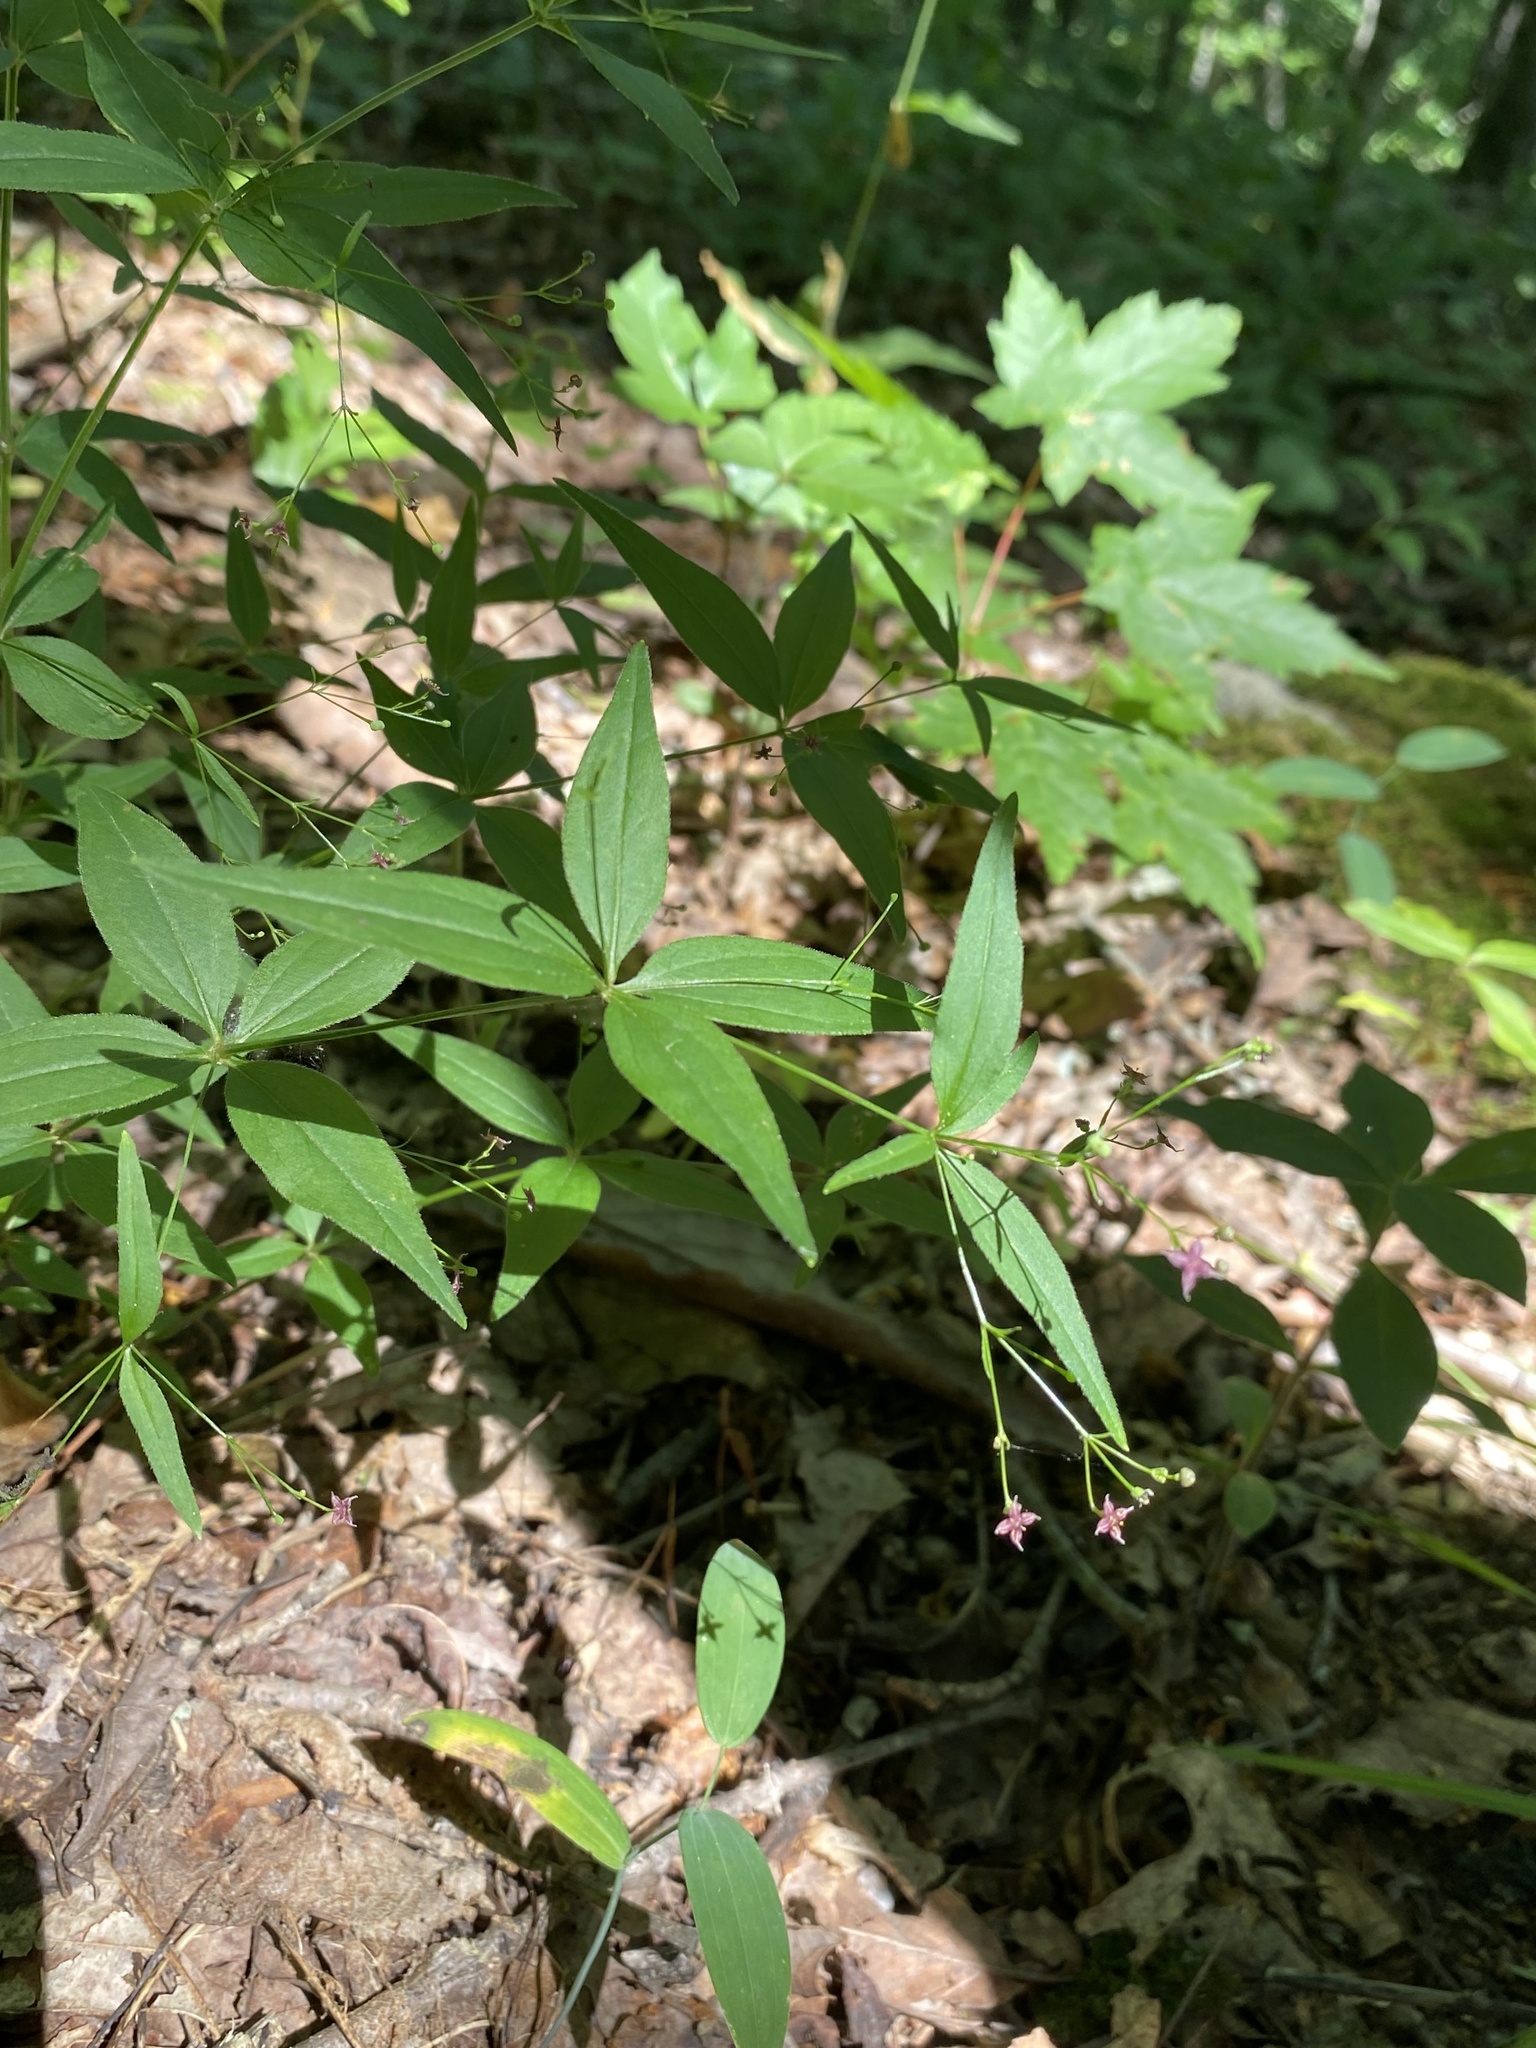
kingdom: Plantae
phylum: Tracheophyta
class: Magnoliopsida
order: Gentianales
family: Rubiaceae
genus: Galium
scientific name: Galium latifolium
